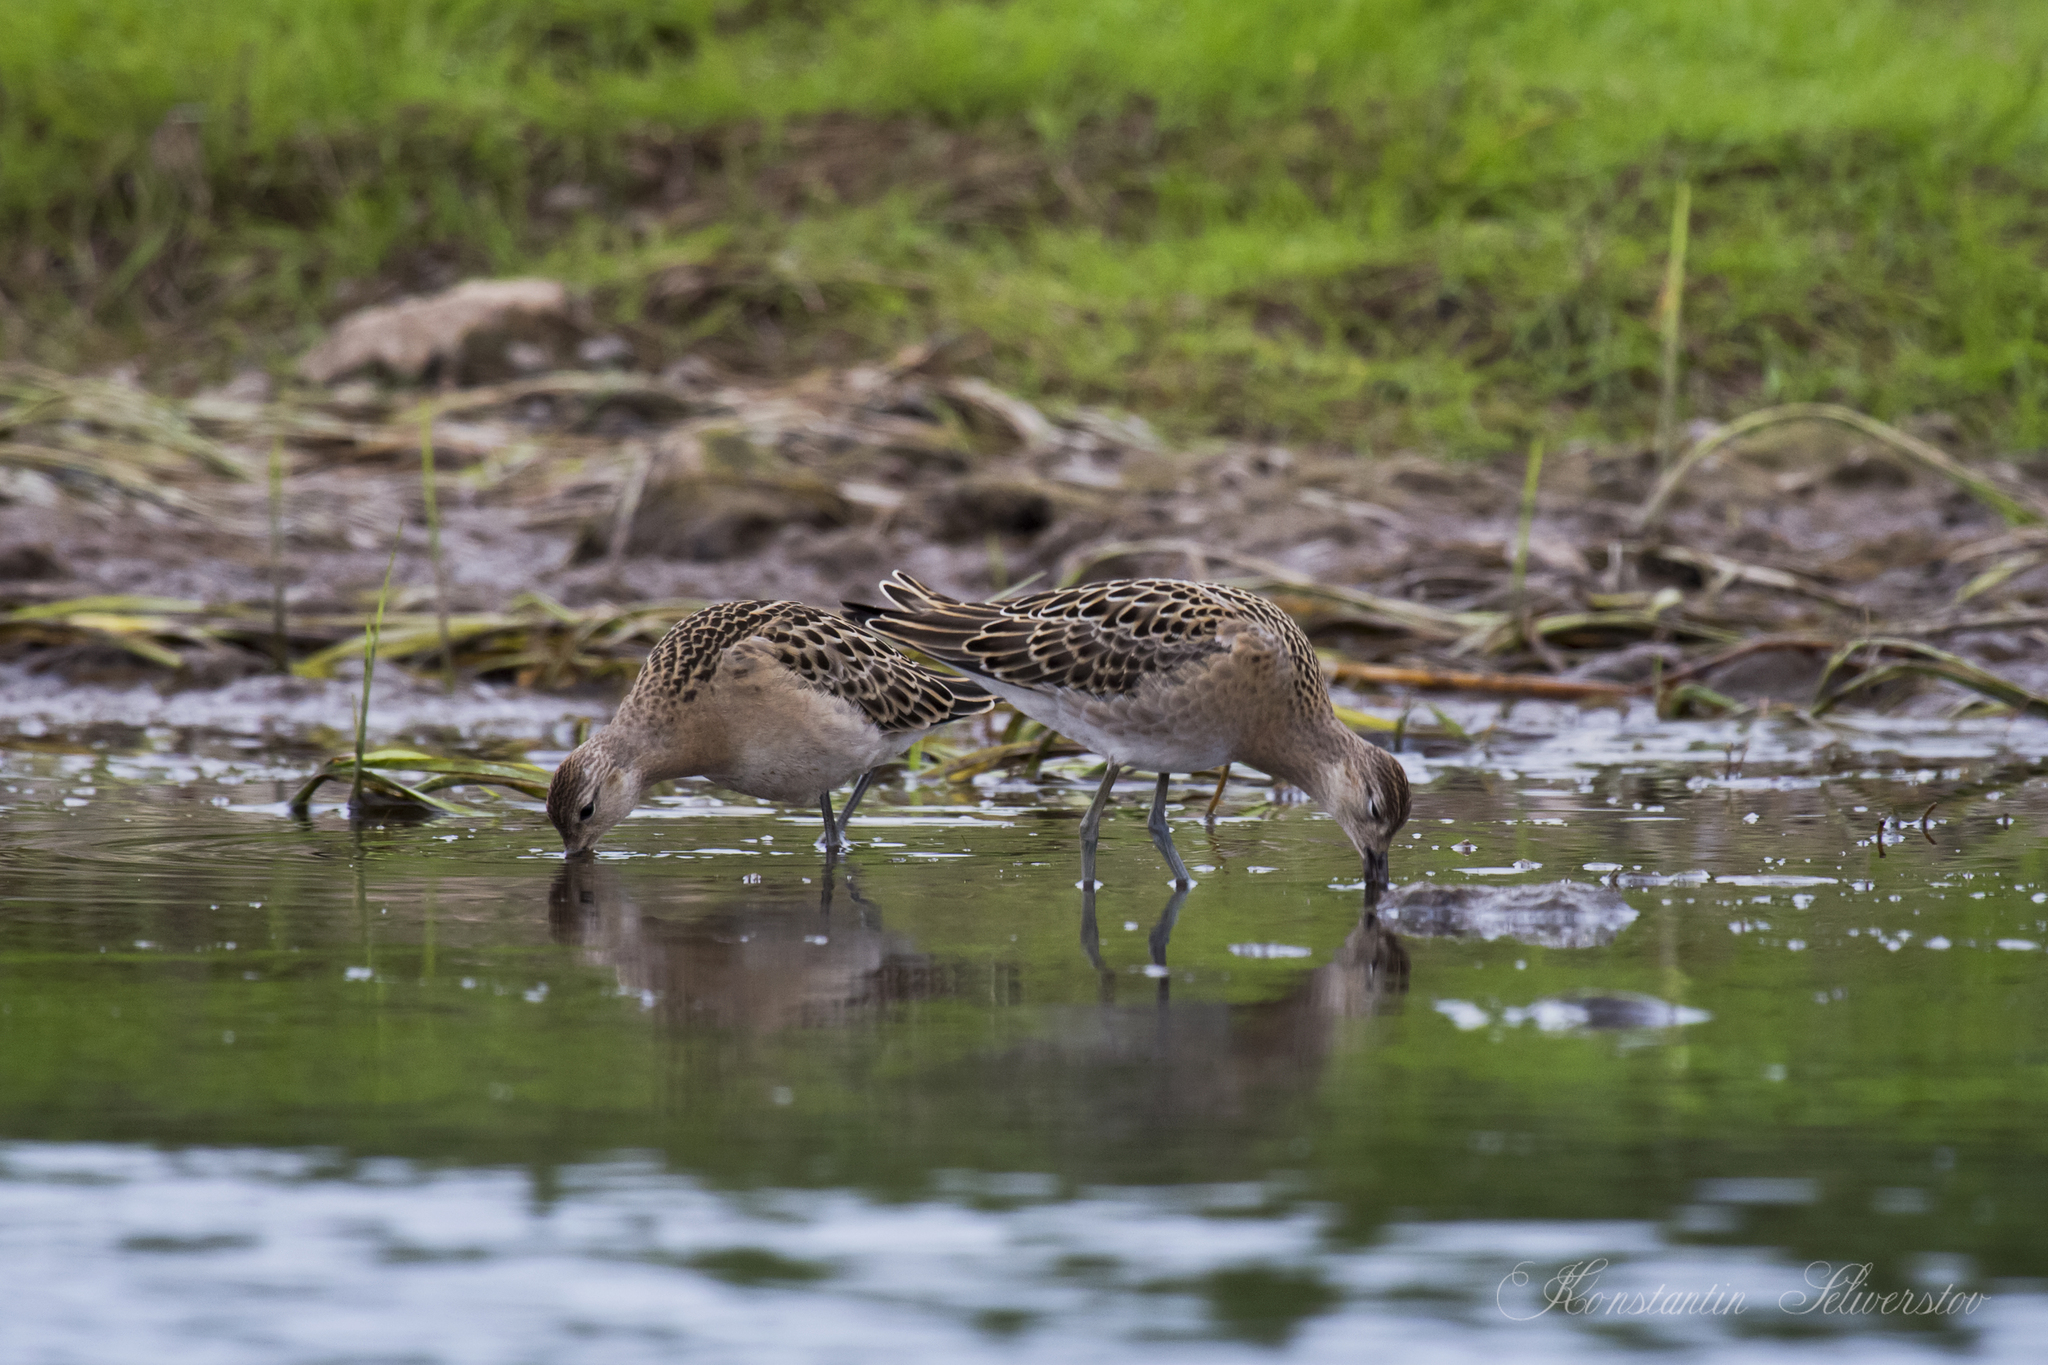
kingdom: Animalia
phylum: Chordata
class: Aves
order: Charadriiformes
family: Scolopacidae
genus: Calidris
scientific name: Calidris pugnax
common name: Ruff
